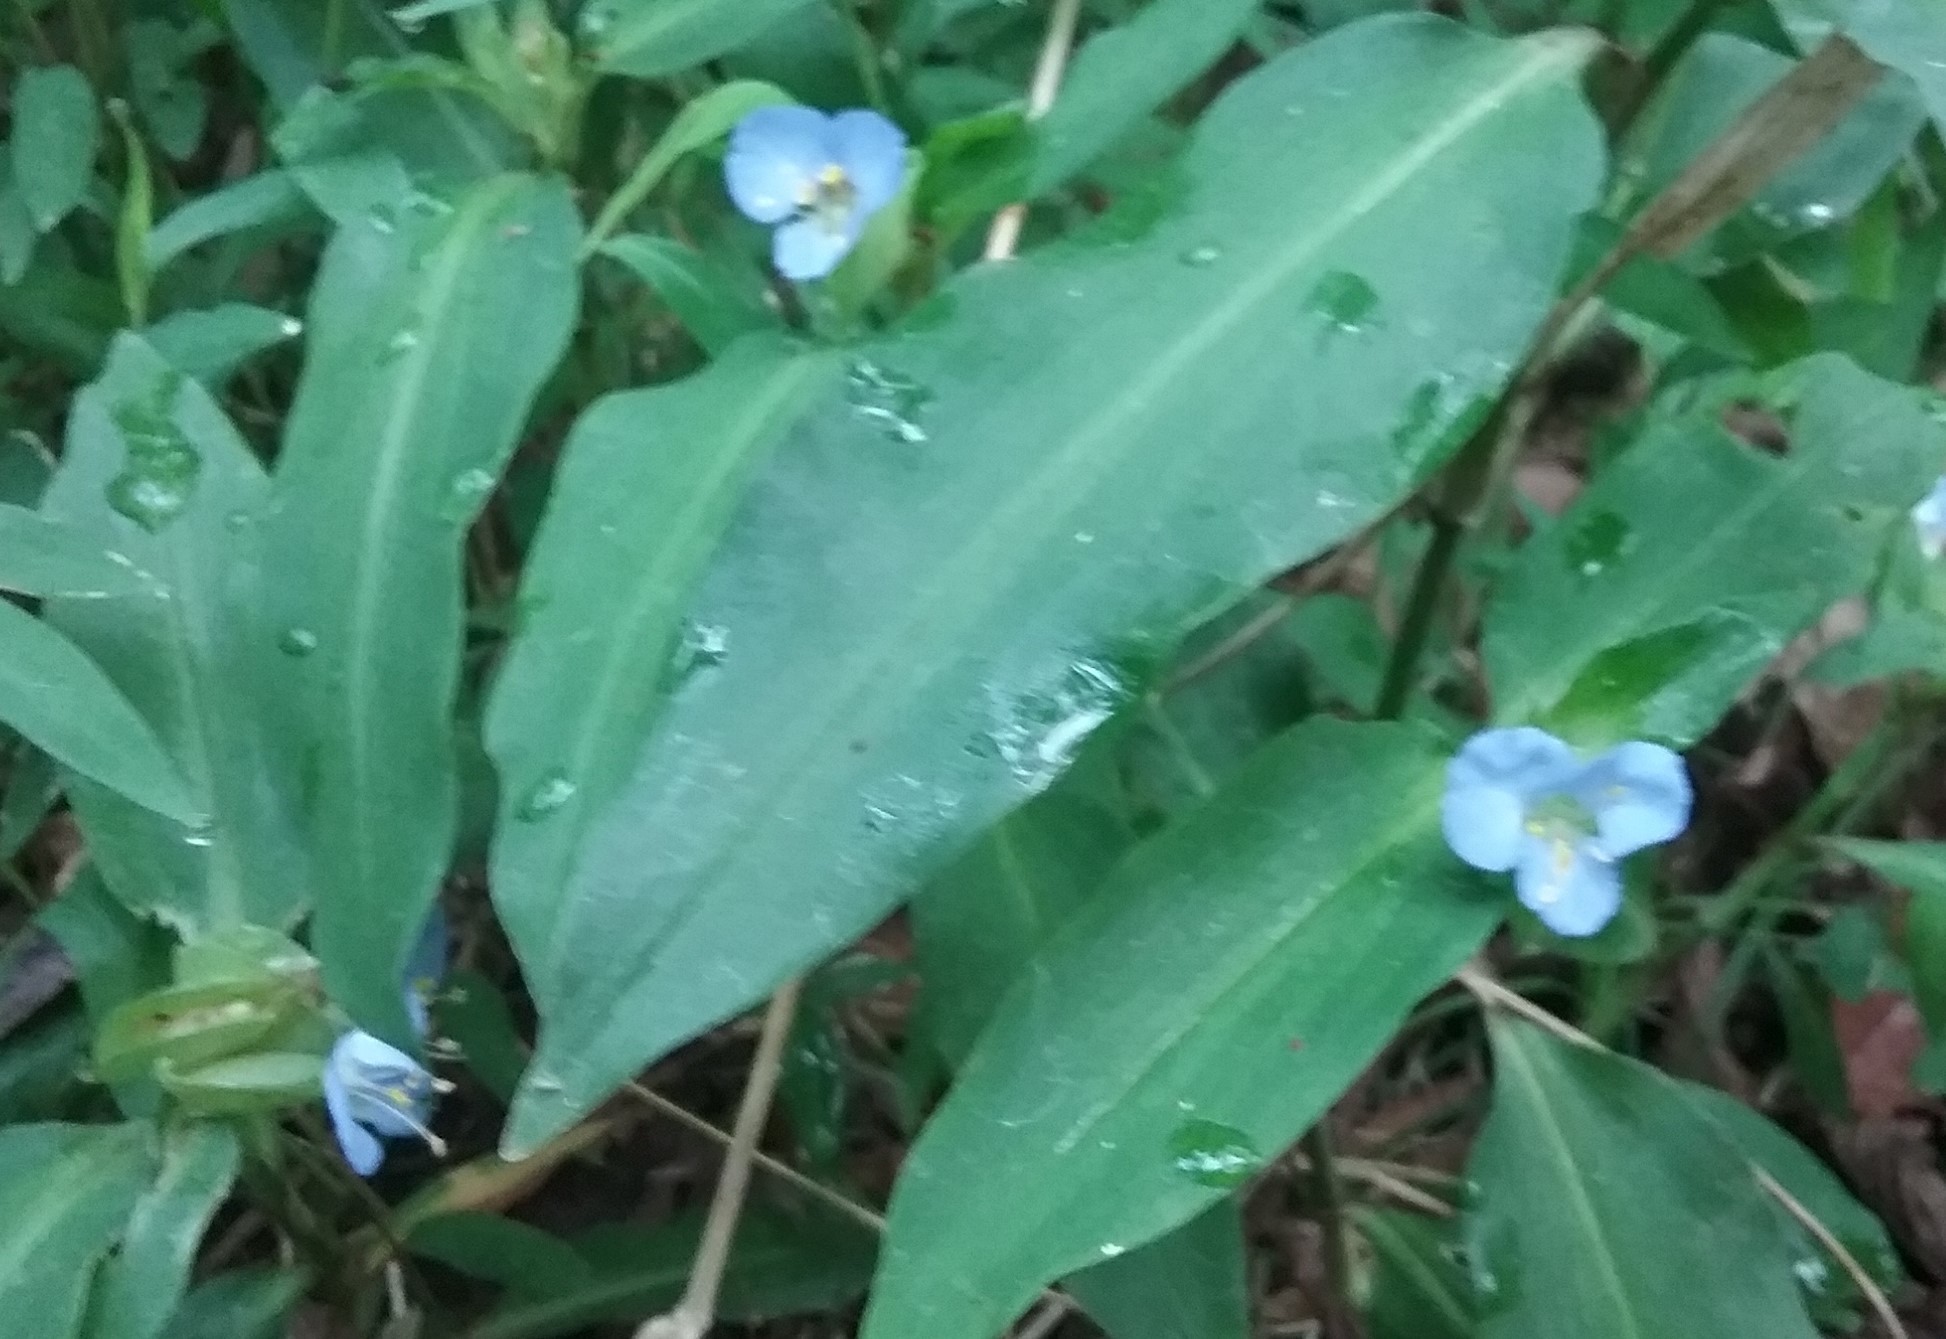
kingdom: Plantae
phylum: Tracheophyta
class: Liliopsida
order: Commelinales
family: Commelinaceae
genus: Commelina
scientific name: Commelina virginica
